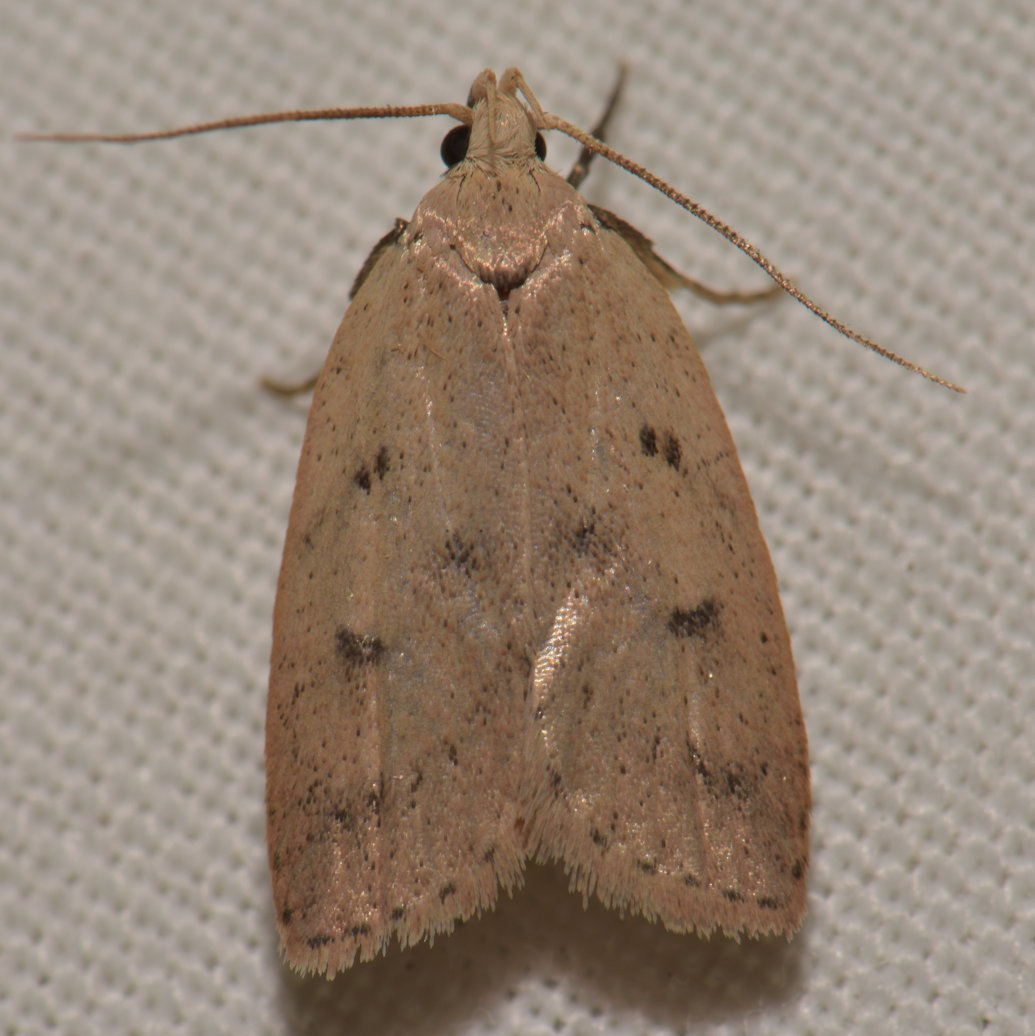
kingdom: Animalia
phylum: Arthropoda
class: Insecta
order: Lepidoptera
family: Peleopodidae
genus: Machimia
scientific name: Machimia tentoriferella
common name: Gold-striped leaftier moth
